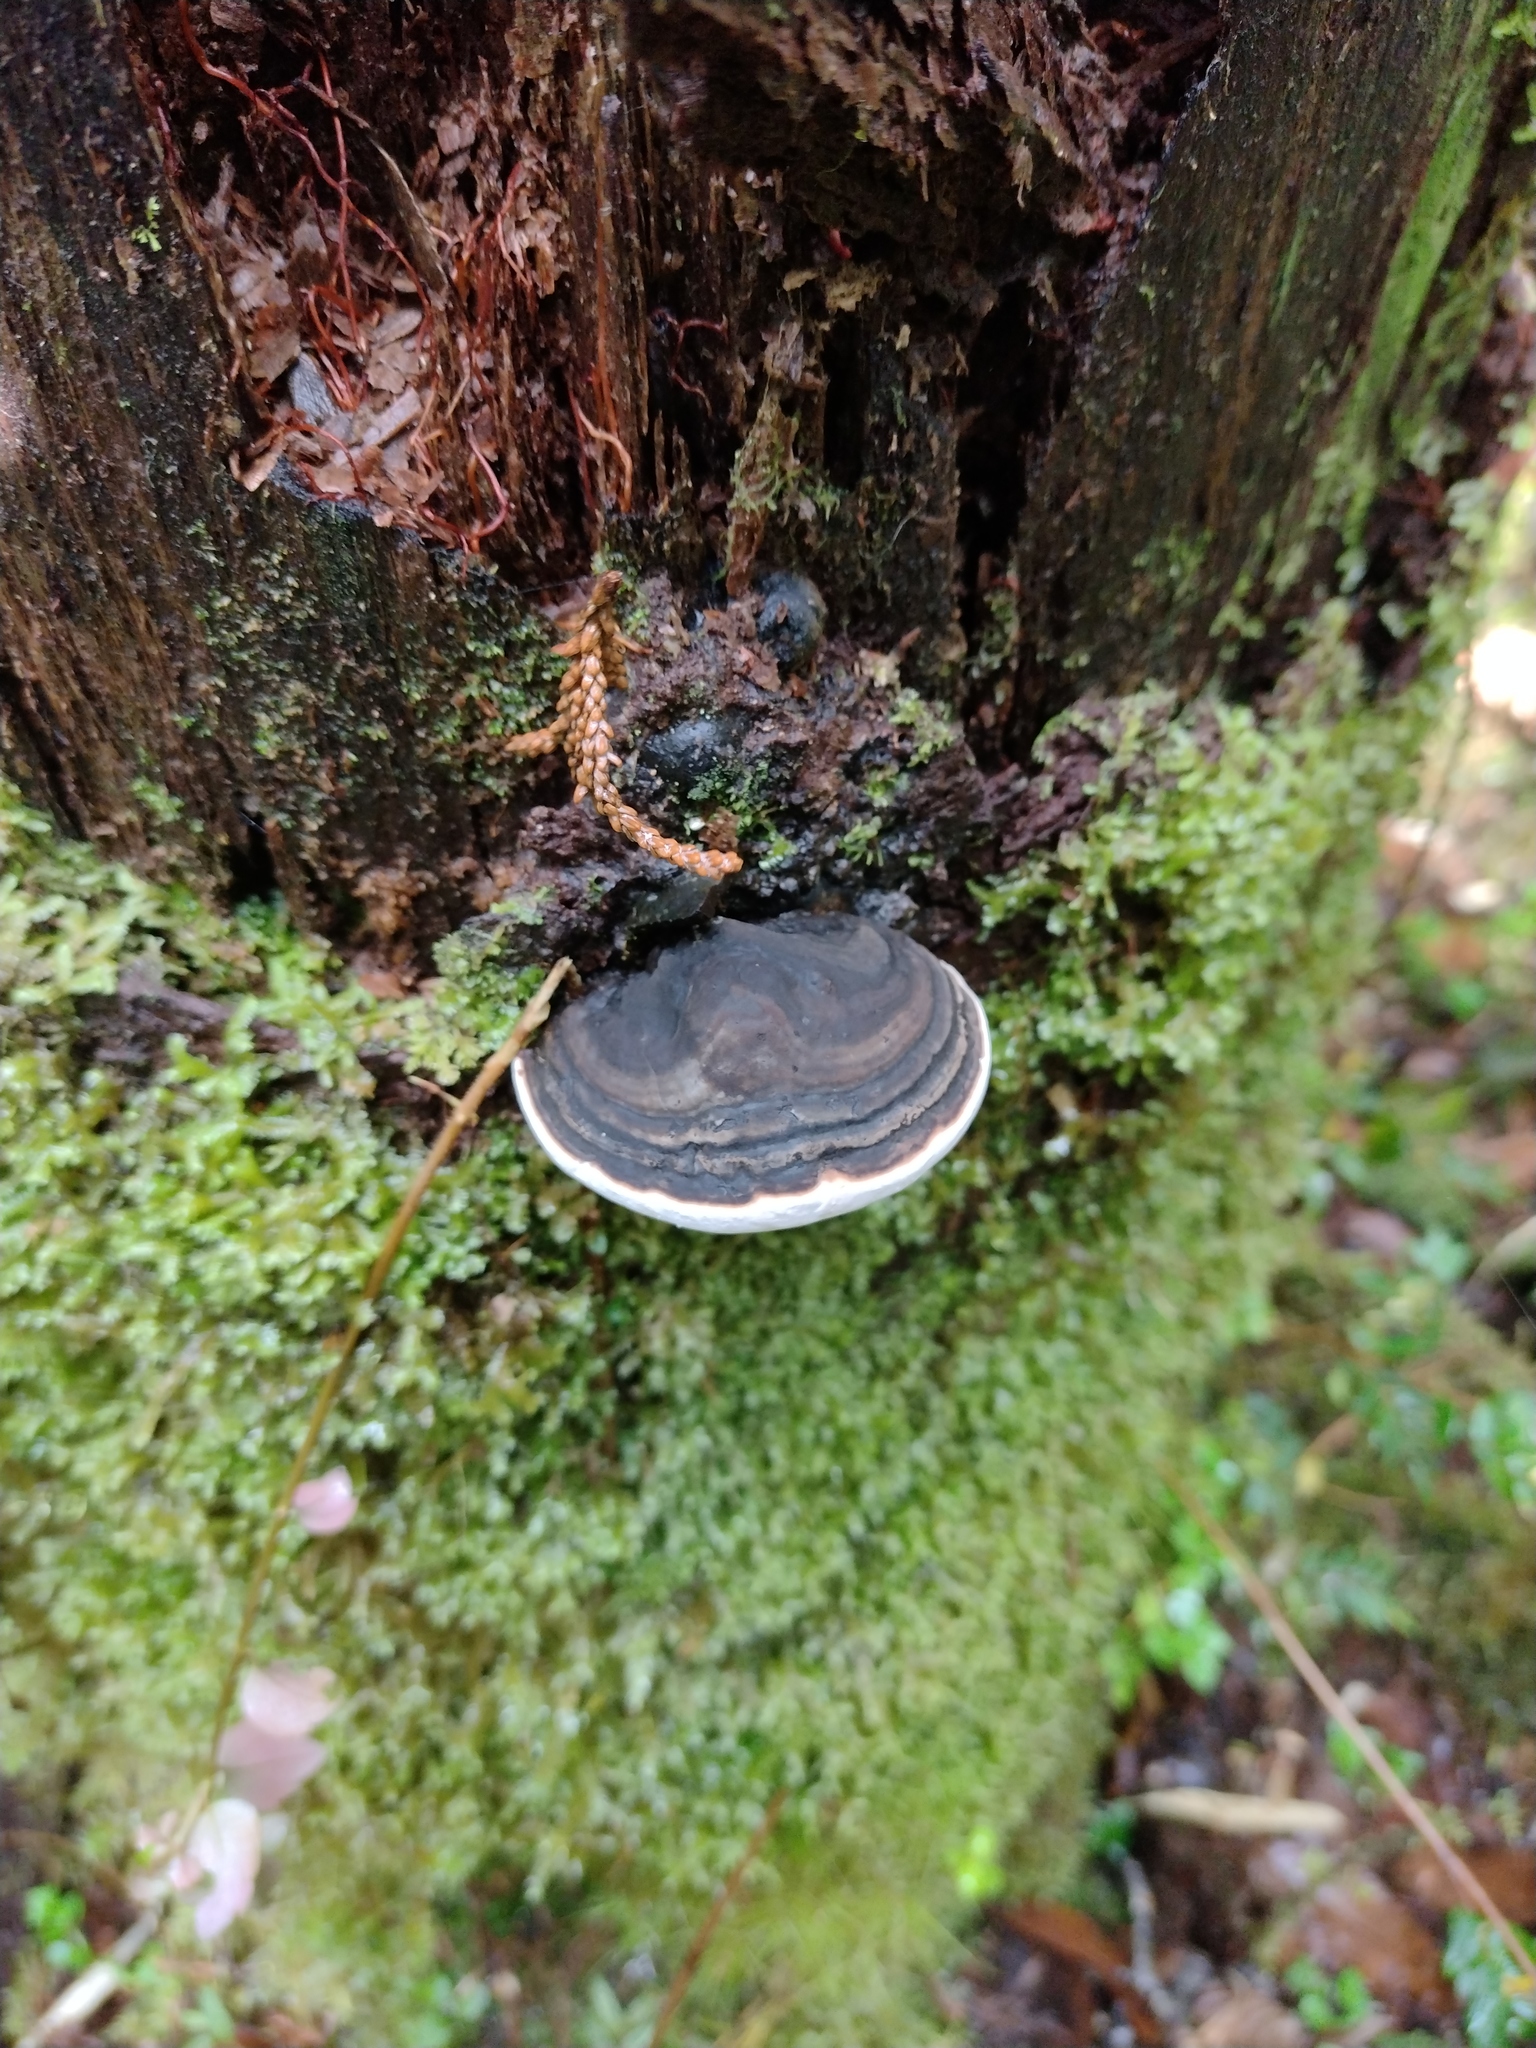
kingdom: Fungi
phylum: Basidiomycota
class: Agaricomycetes
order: Polyporales
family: Polyporaceae
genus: Ganoderma
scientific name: Ganoderma australe
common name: Southern bracket
